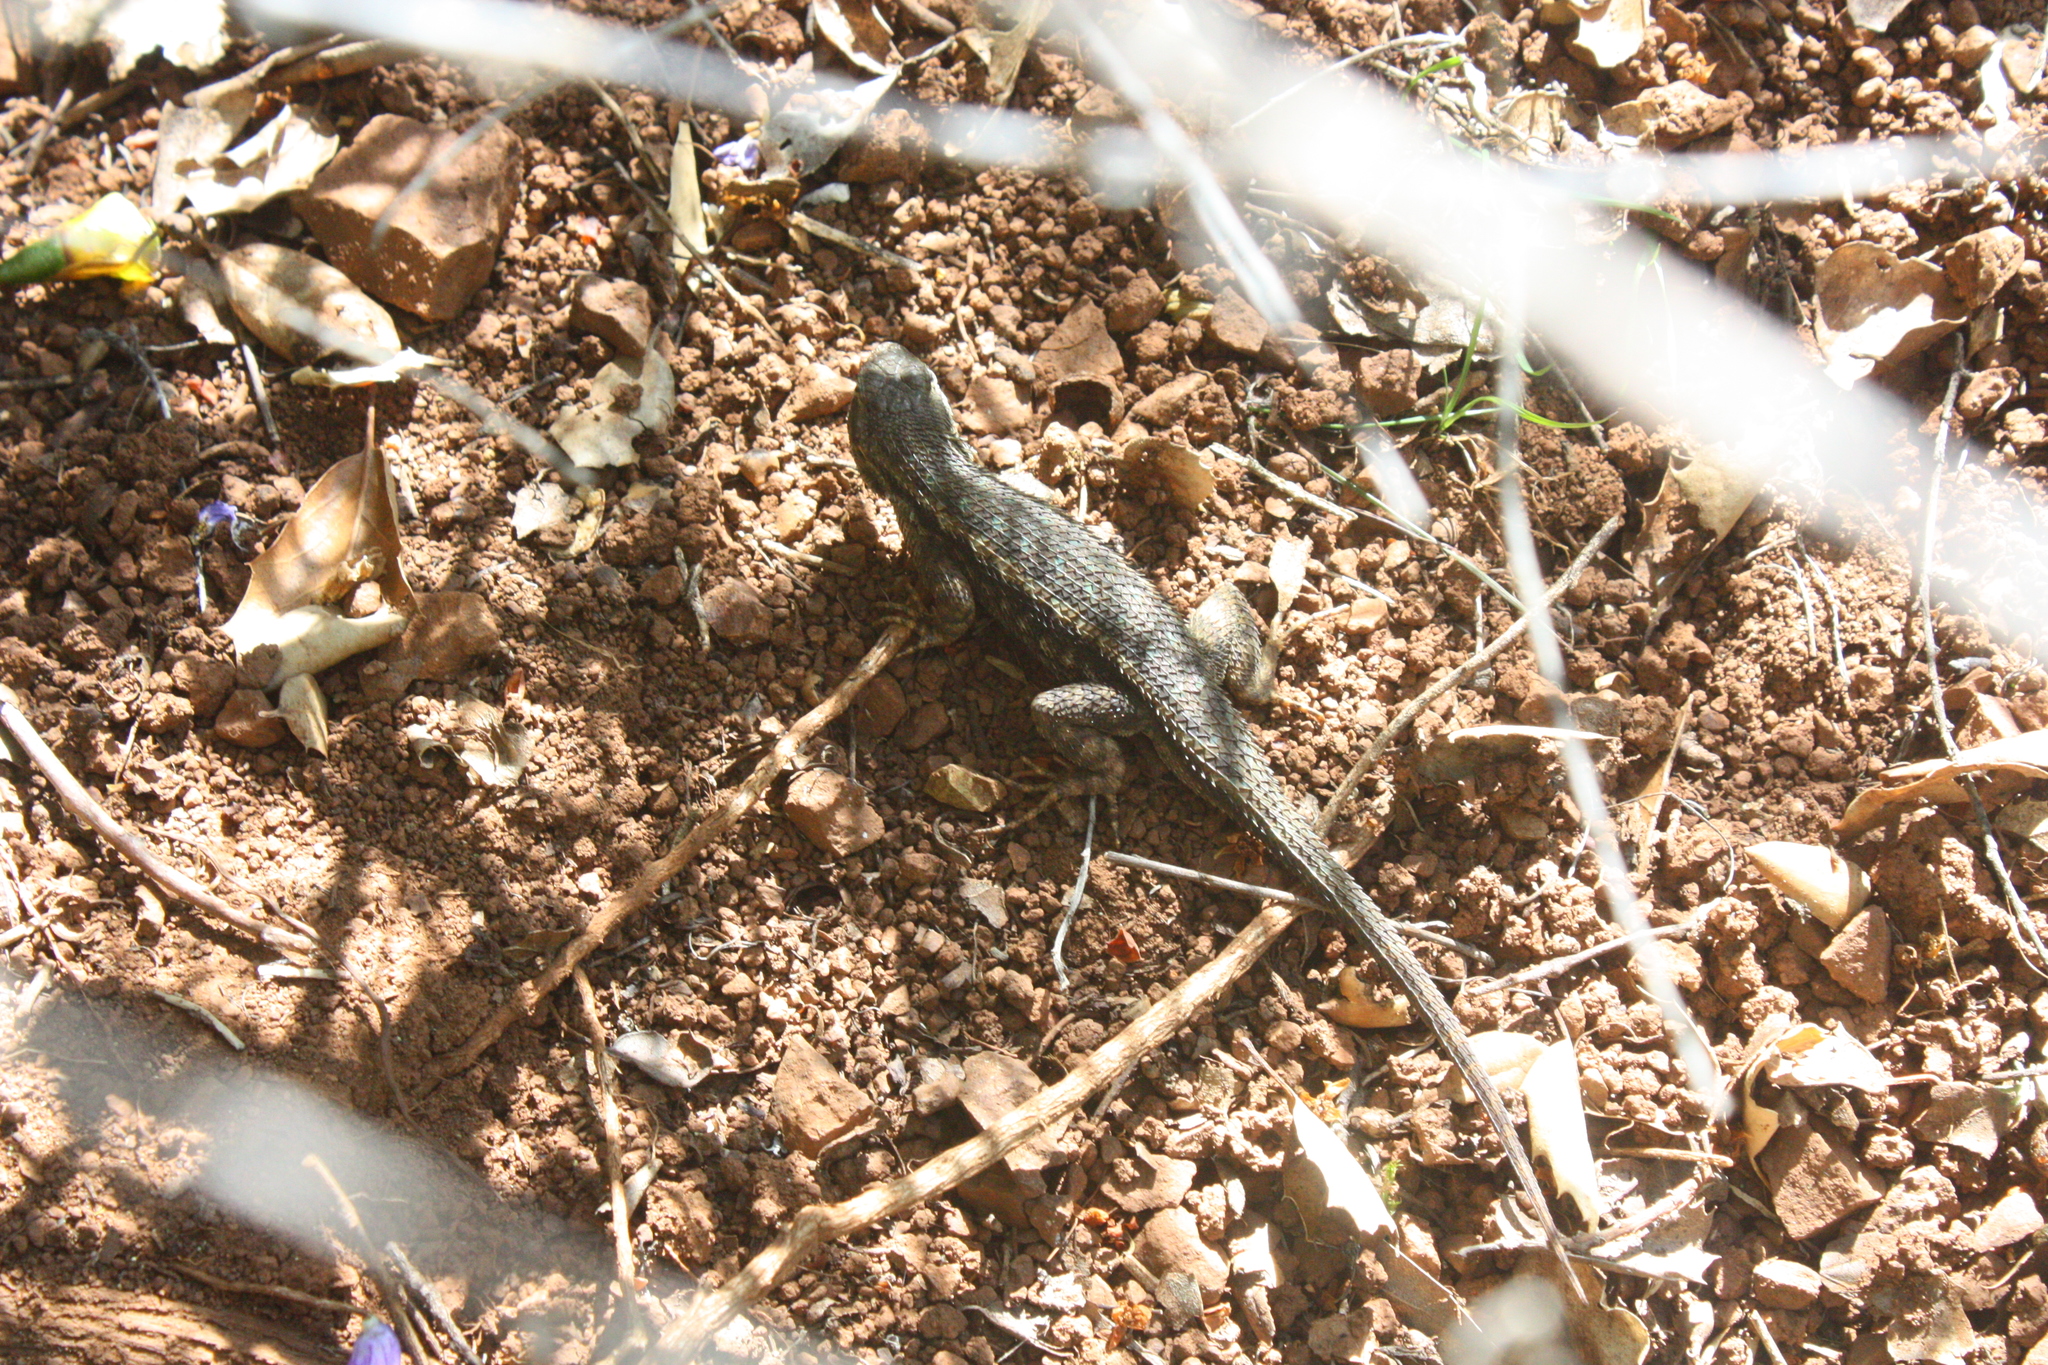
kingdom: Animalia
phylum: Chordata
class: Squamata
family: Phrynosomatidae
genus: Sceloporus
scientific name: Sceloporus occidentalis
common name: Western fence lizard
